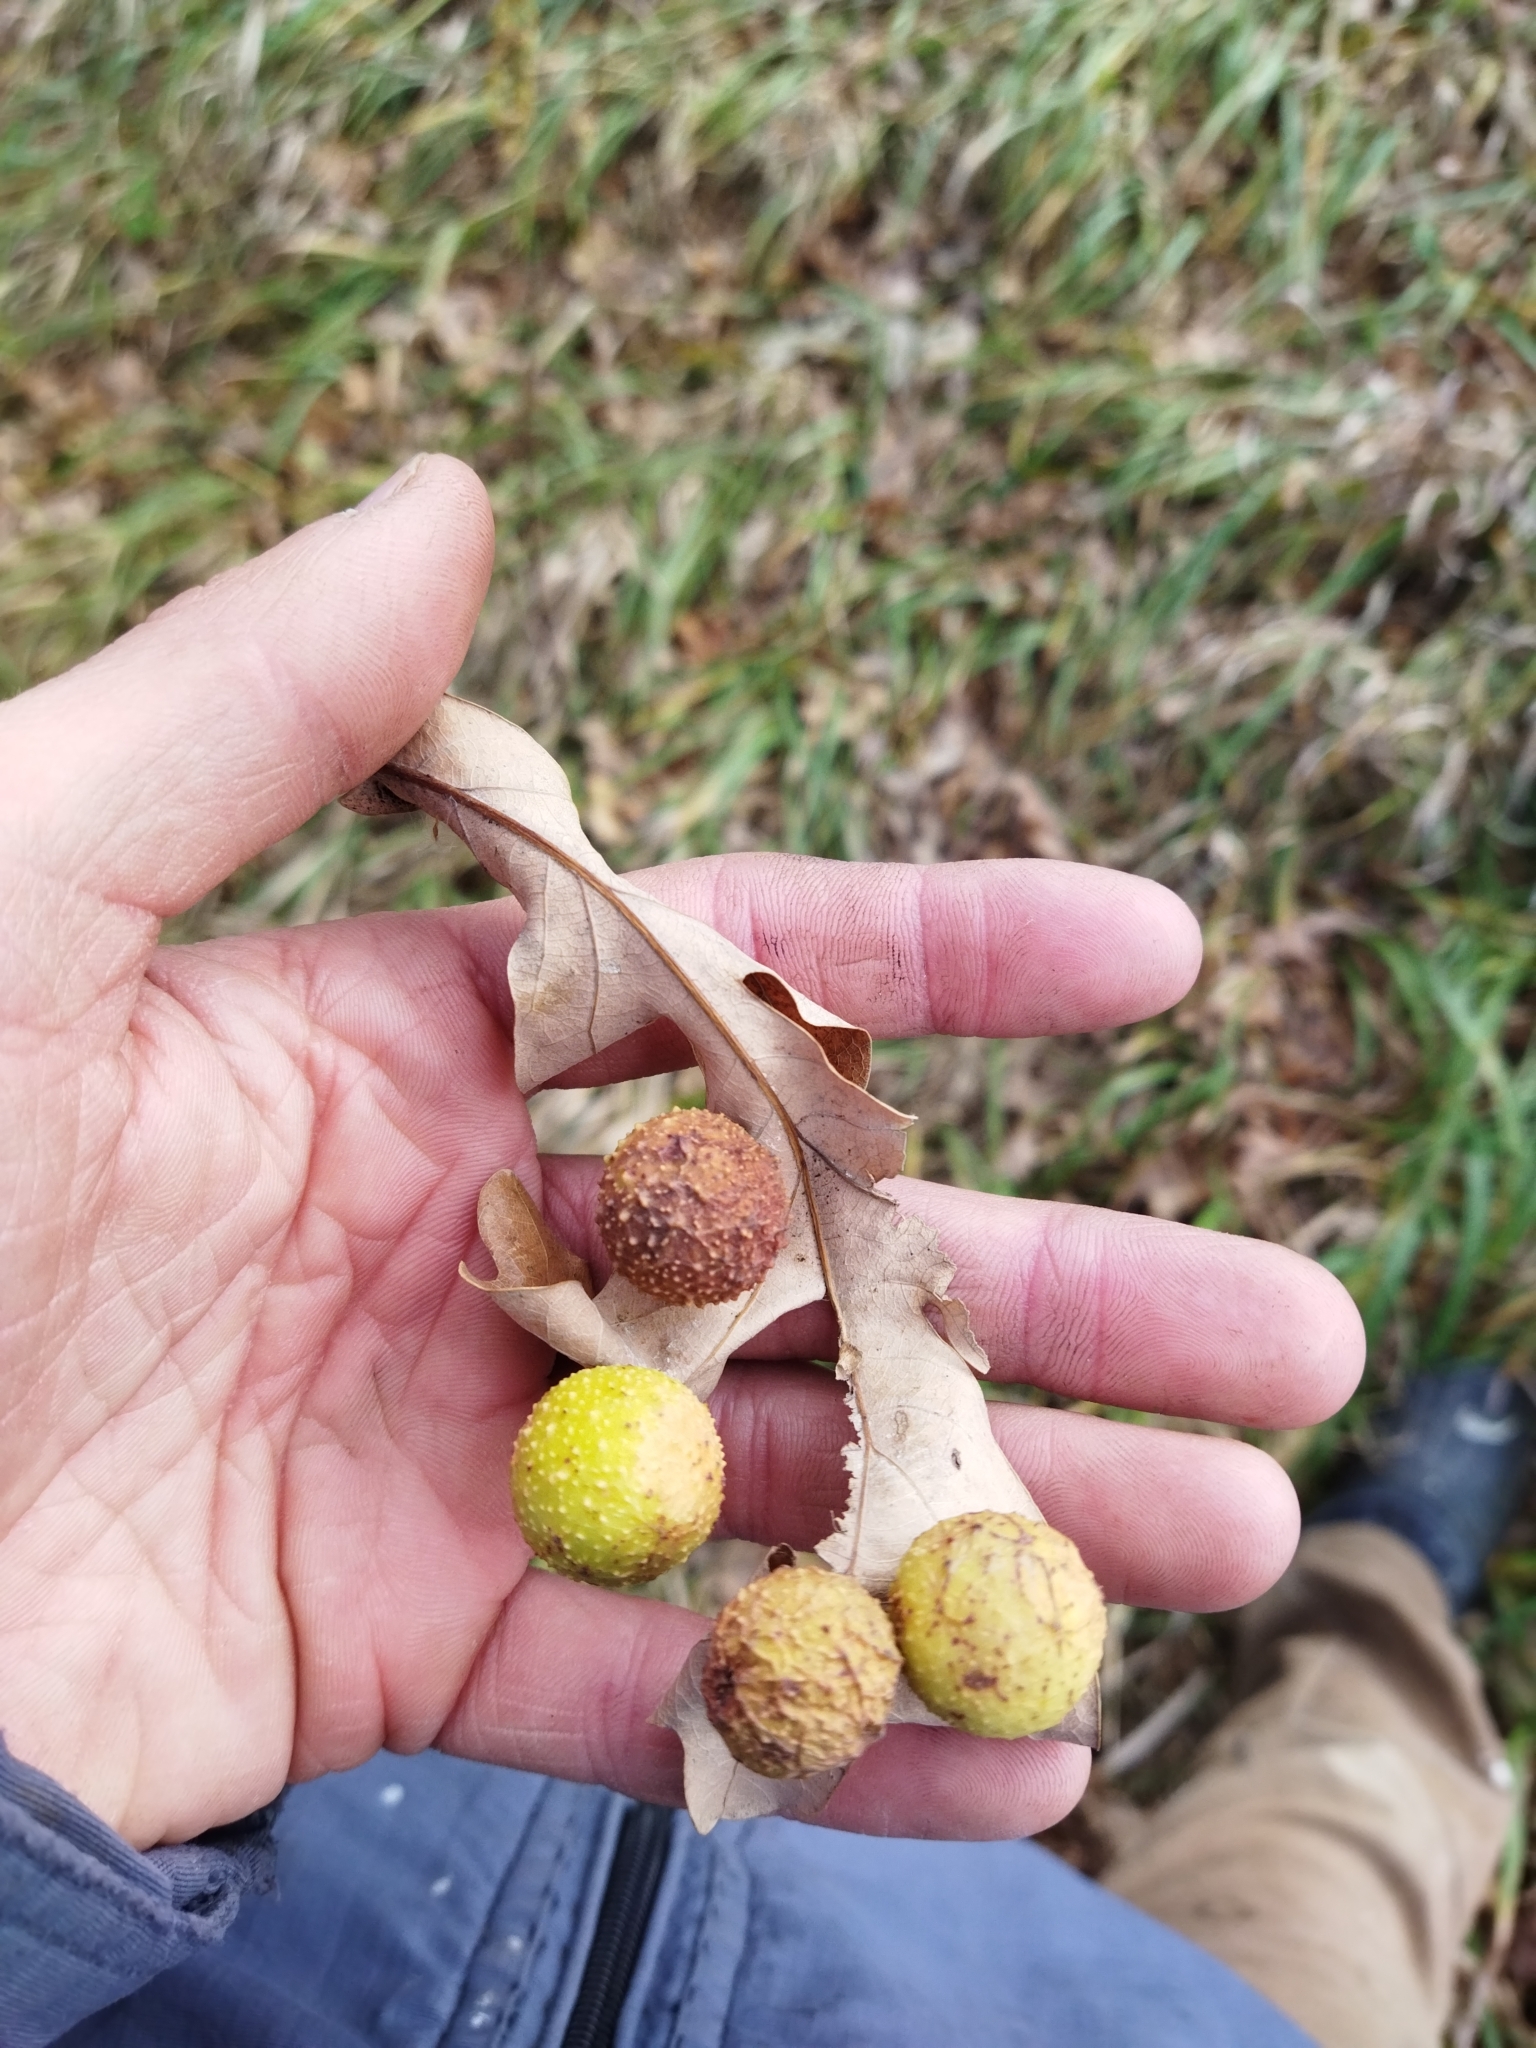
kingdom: Animalia
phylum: Arthropoda
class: Insecta
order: Hymenoptera
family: Cynipidae
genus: Cynips
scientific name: Cynips quercusfolii
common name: Cherry gall
